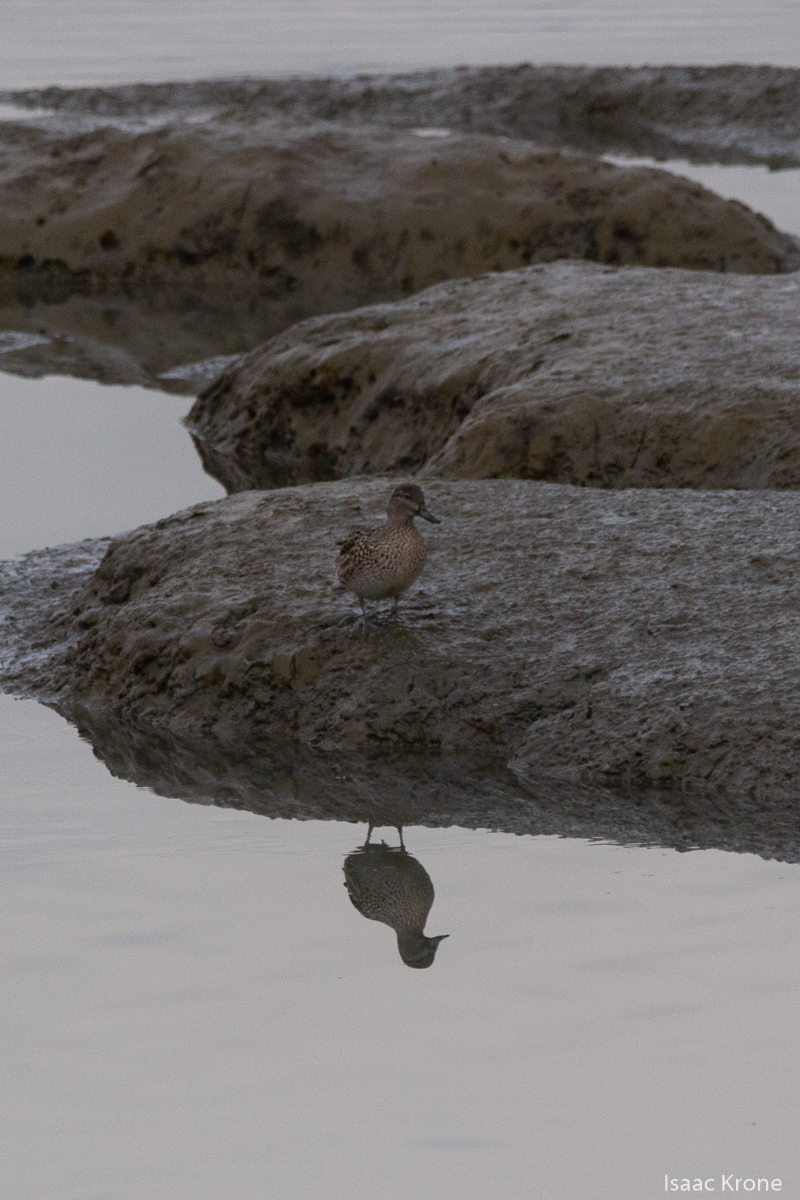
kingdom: Animalia
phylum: Chordata
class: Aves
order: Anseriformes
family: Anatidae
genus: Anas
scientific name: Anas crecca
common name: Eurasian teal
